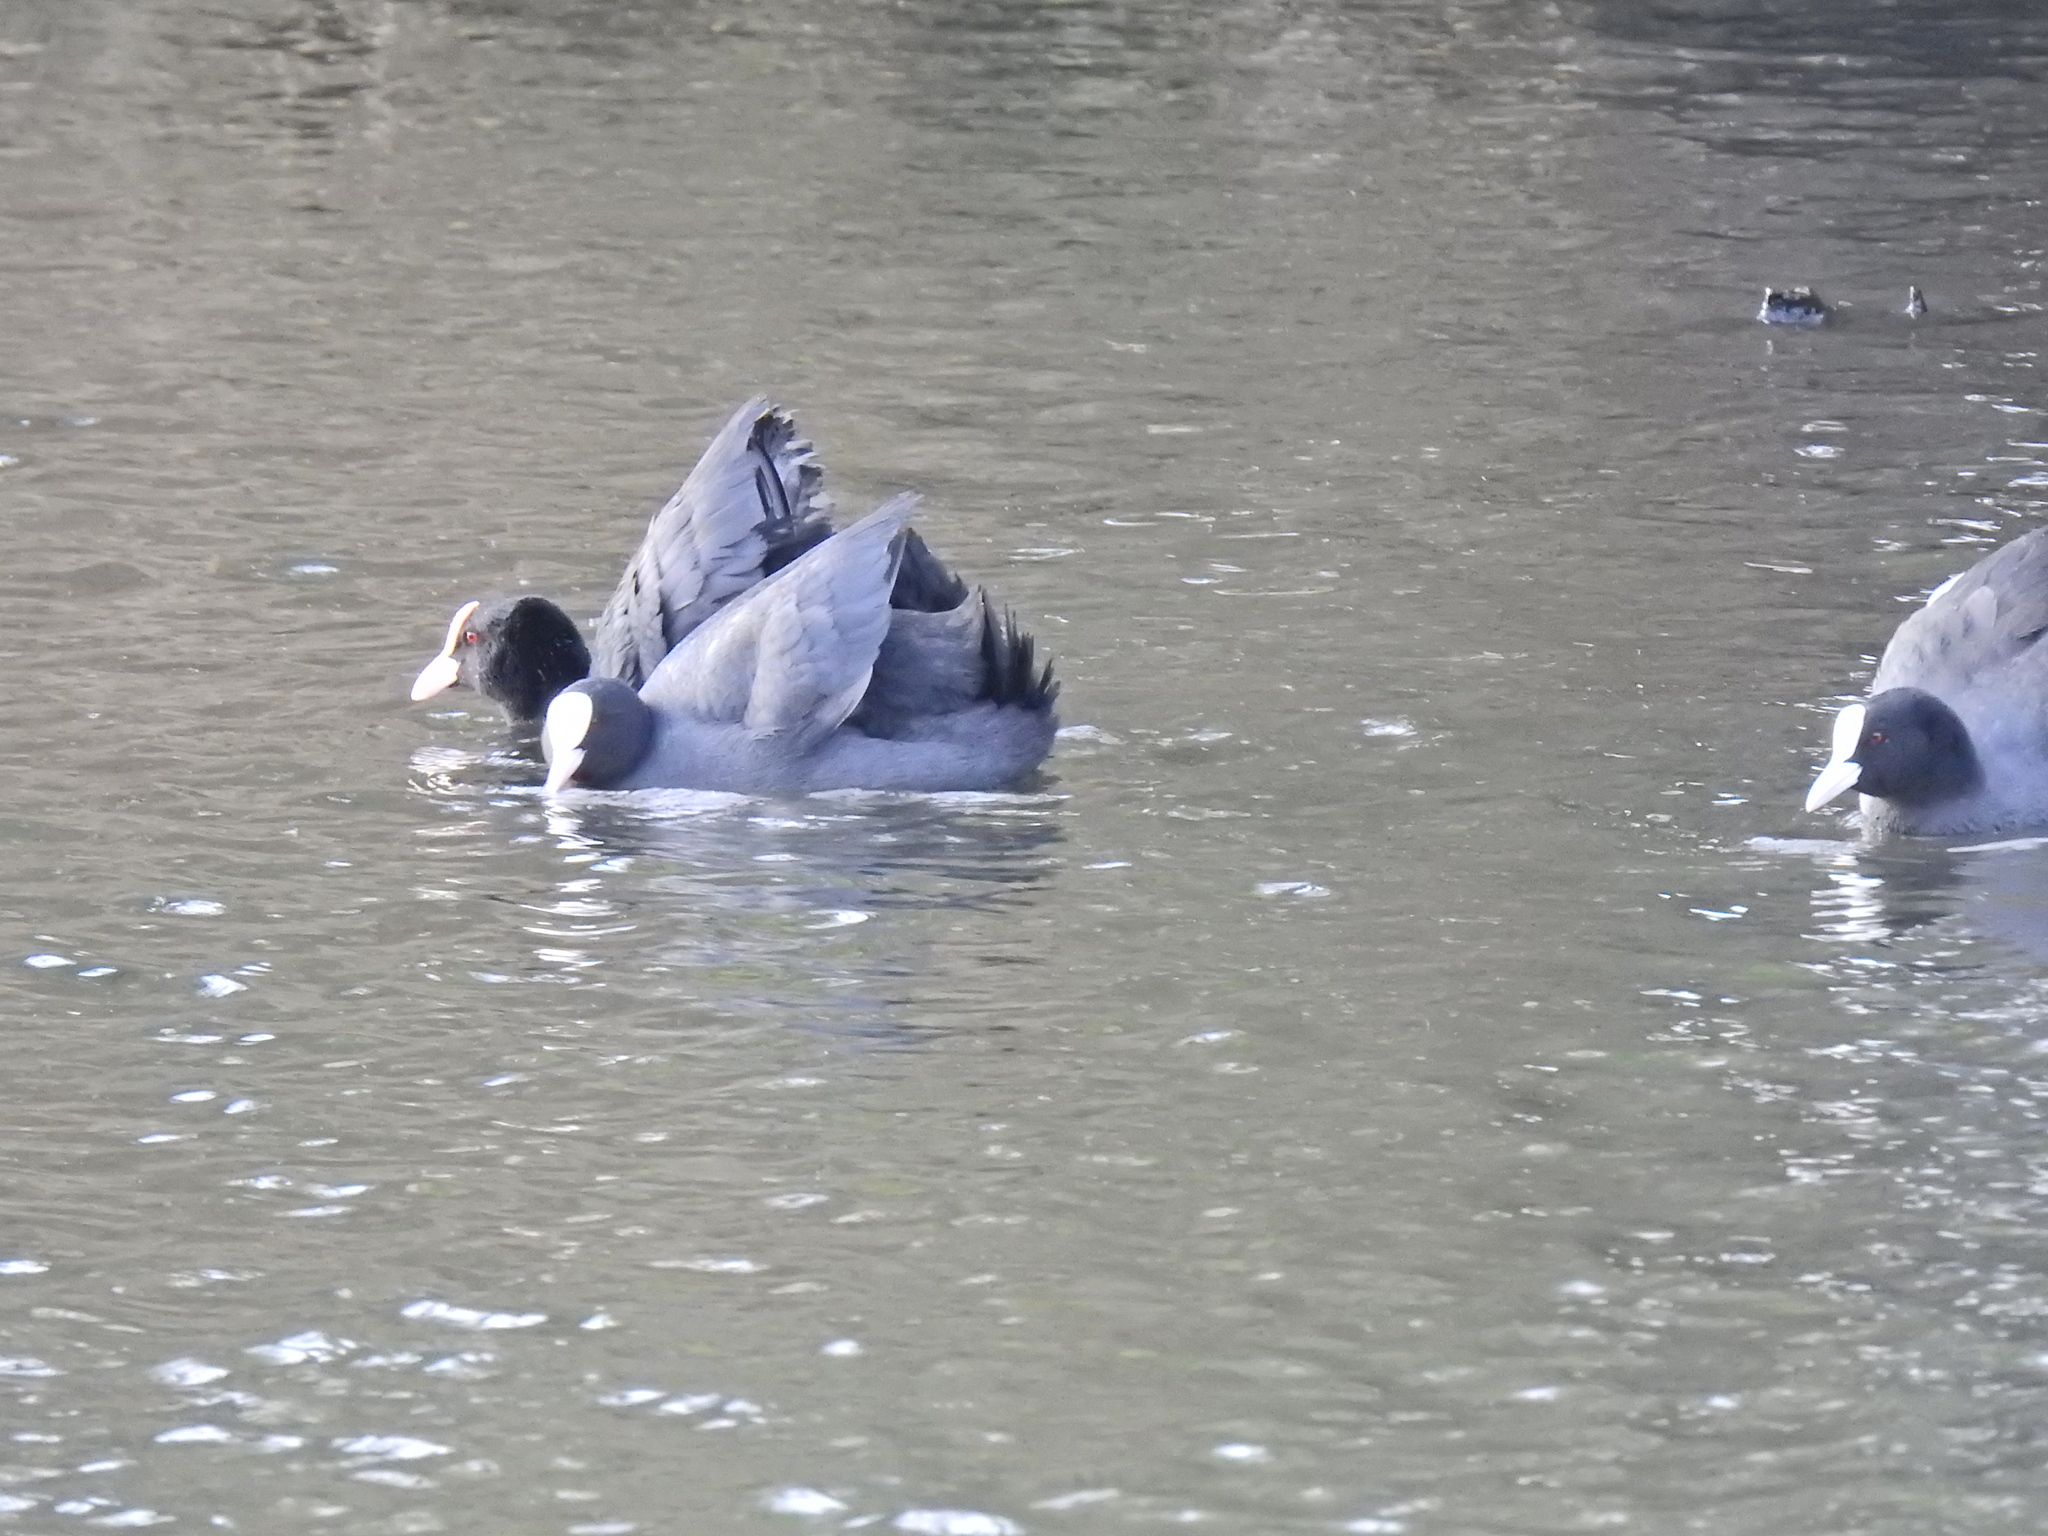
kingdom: Animalia
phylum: Chordata
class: Aves
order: Gruiformes
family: Rallidae
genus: Fulica
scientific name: Fulica atra
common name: Eurasian coot
